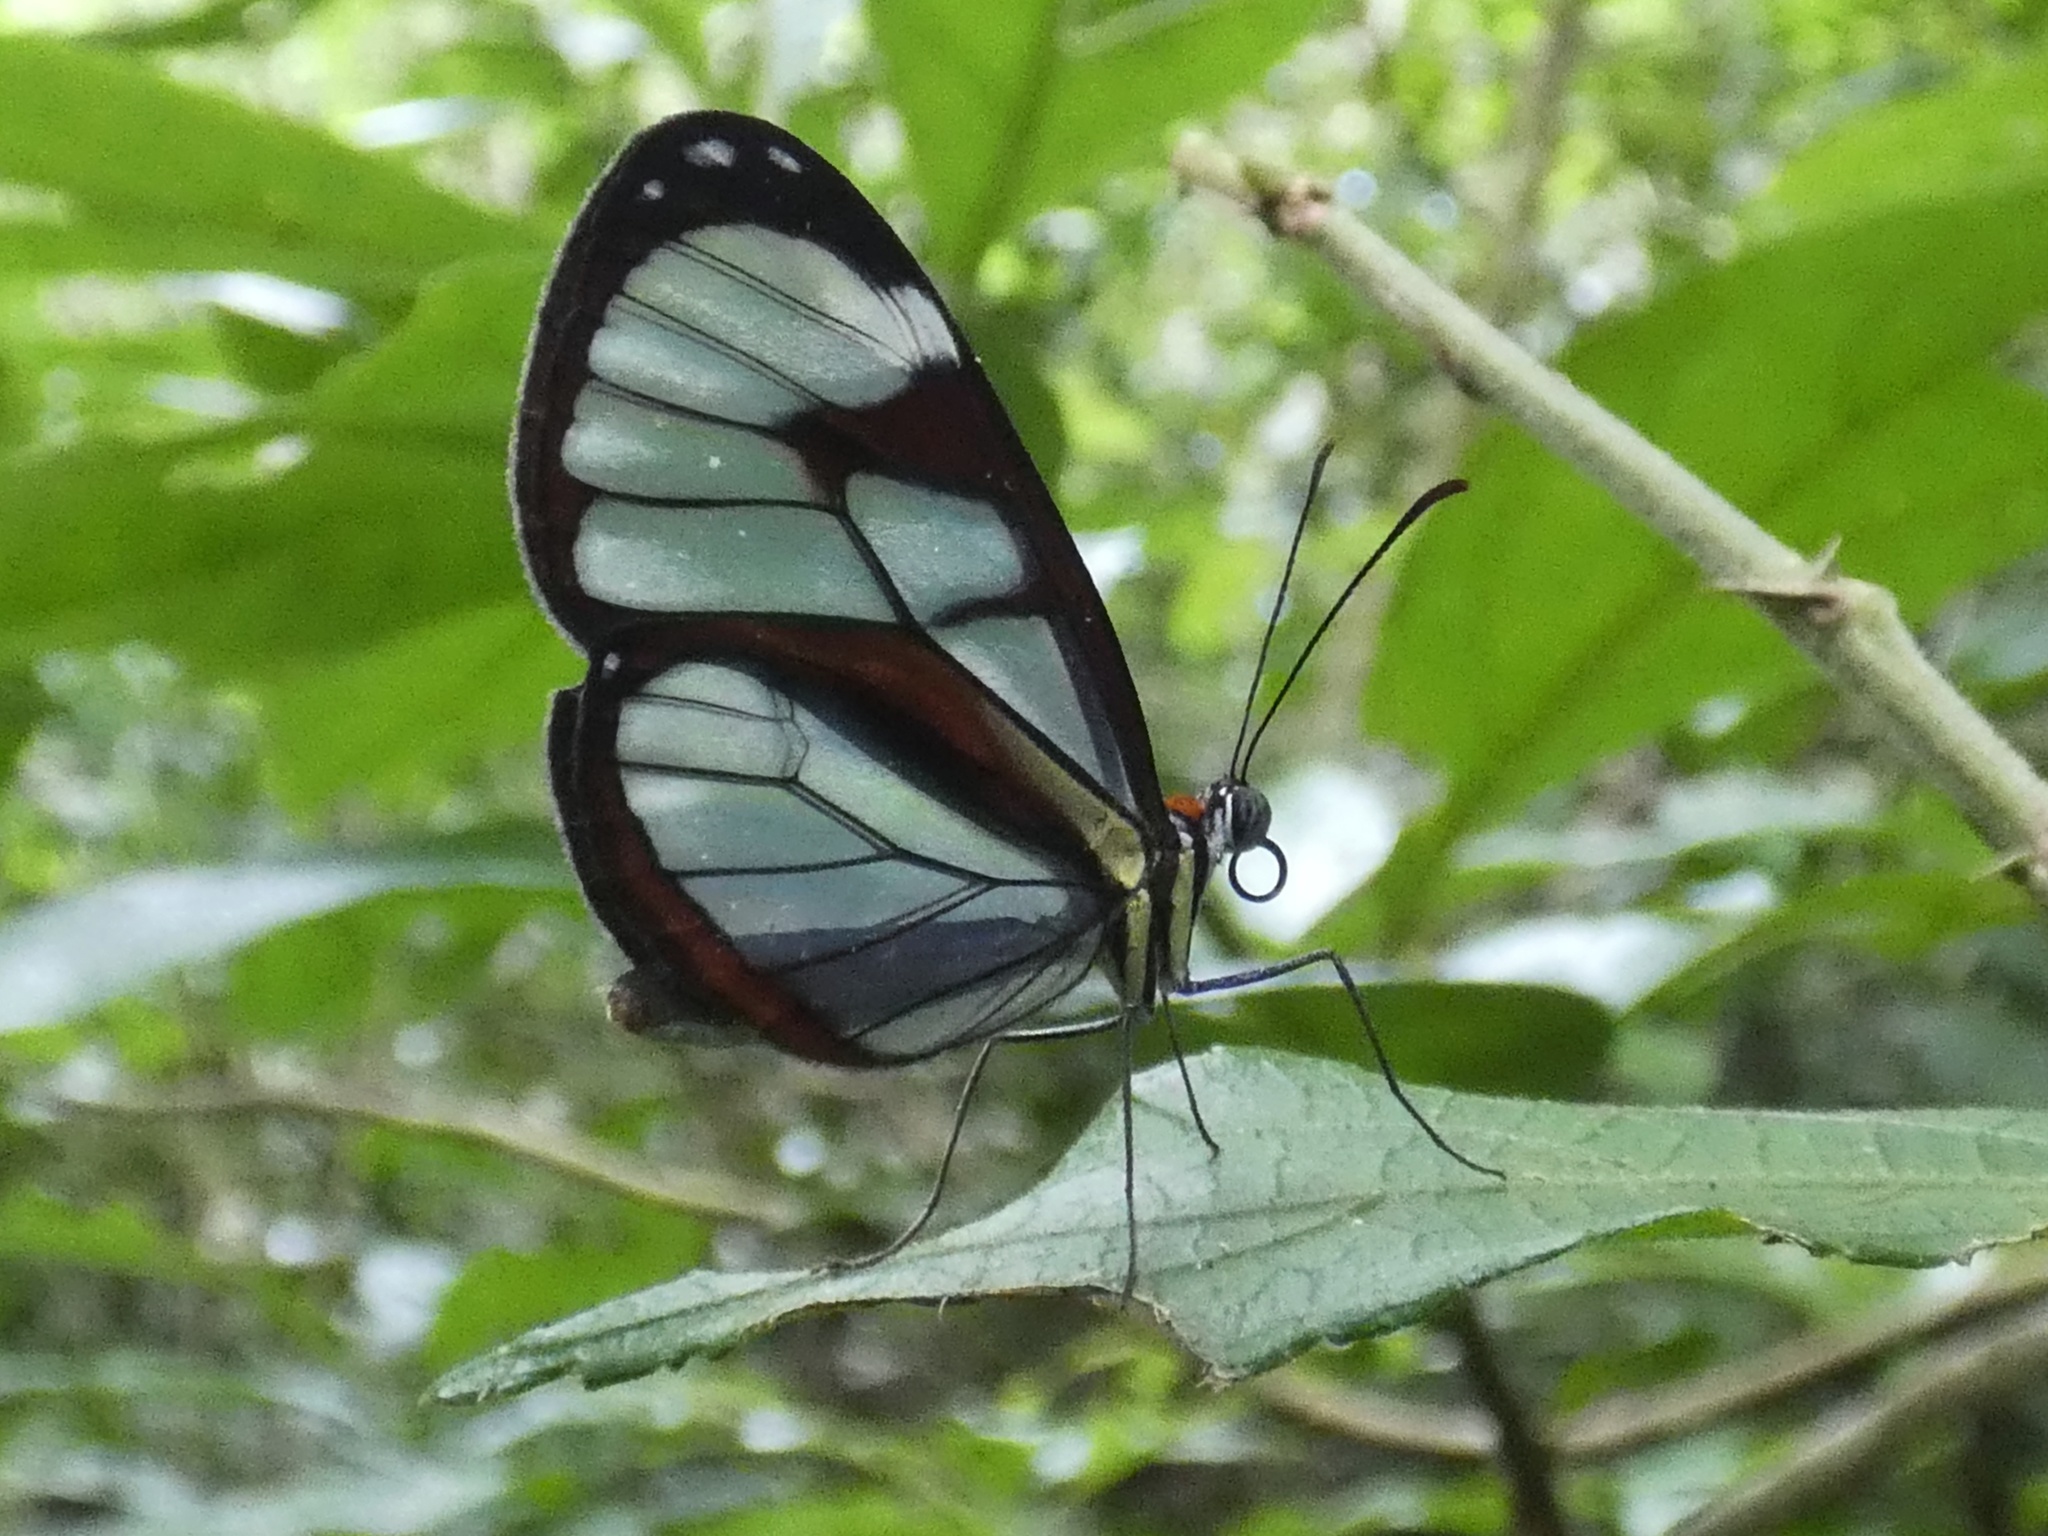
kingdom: Animalia
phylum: Arthropoda
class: Insecta
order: Lepidoptera
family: Nymphalidae
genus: Ithomia
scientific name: Ithomia diasia
